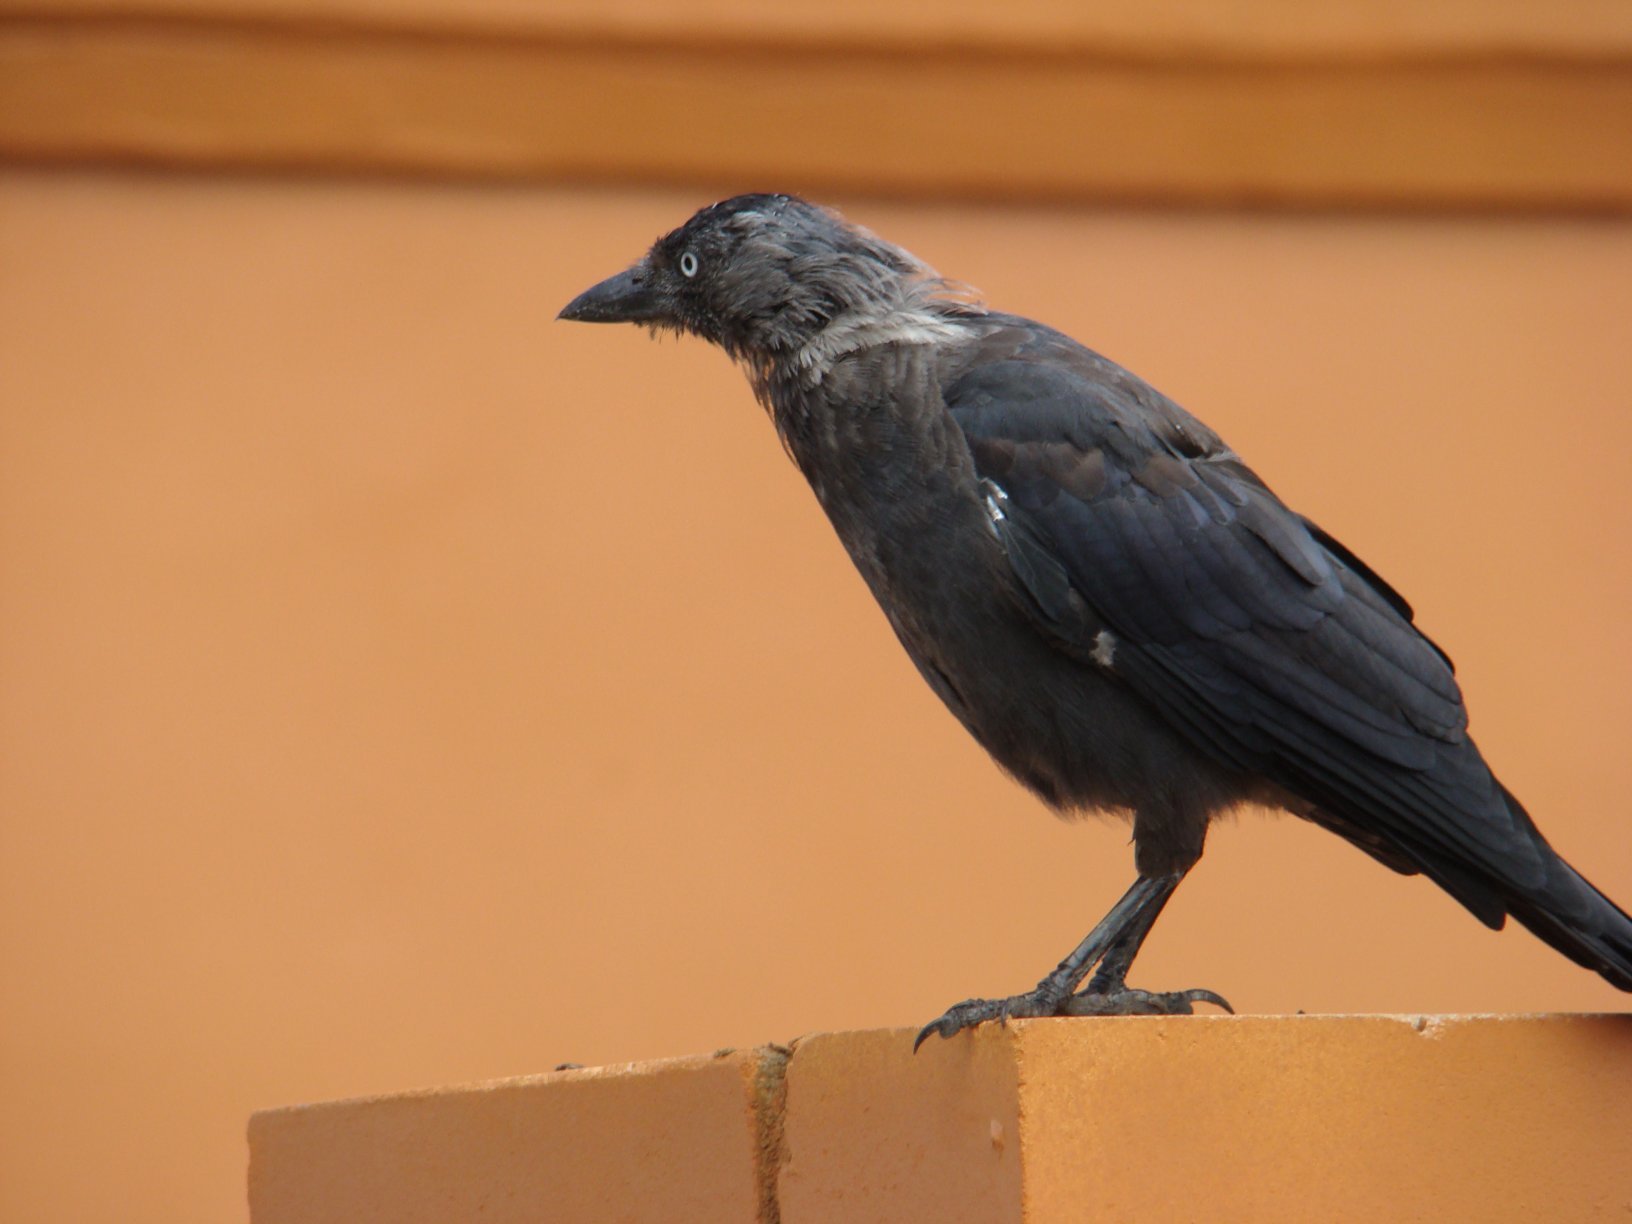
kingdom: Animalia
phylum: Chordata
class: Aves
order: Passeriformes
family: Corvidae
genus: Coloeus
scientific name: Coloeus monedula
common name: Western jackdaw
